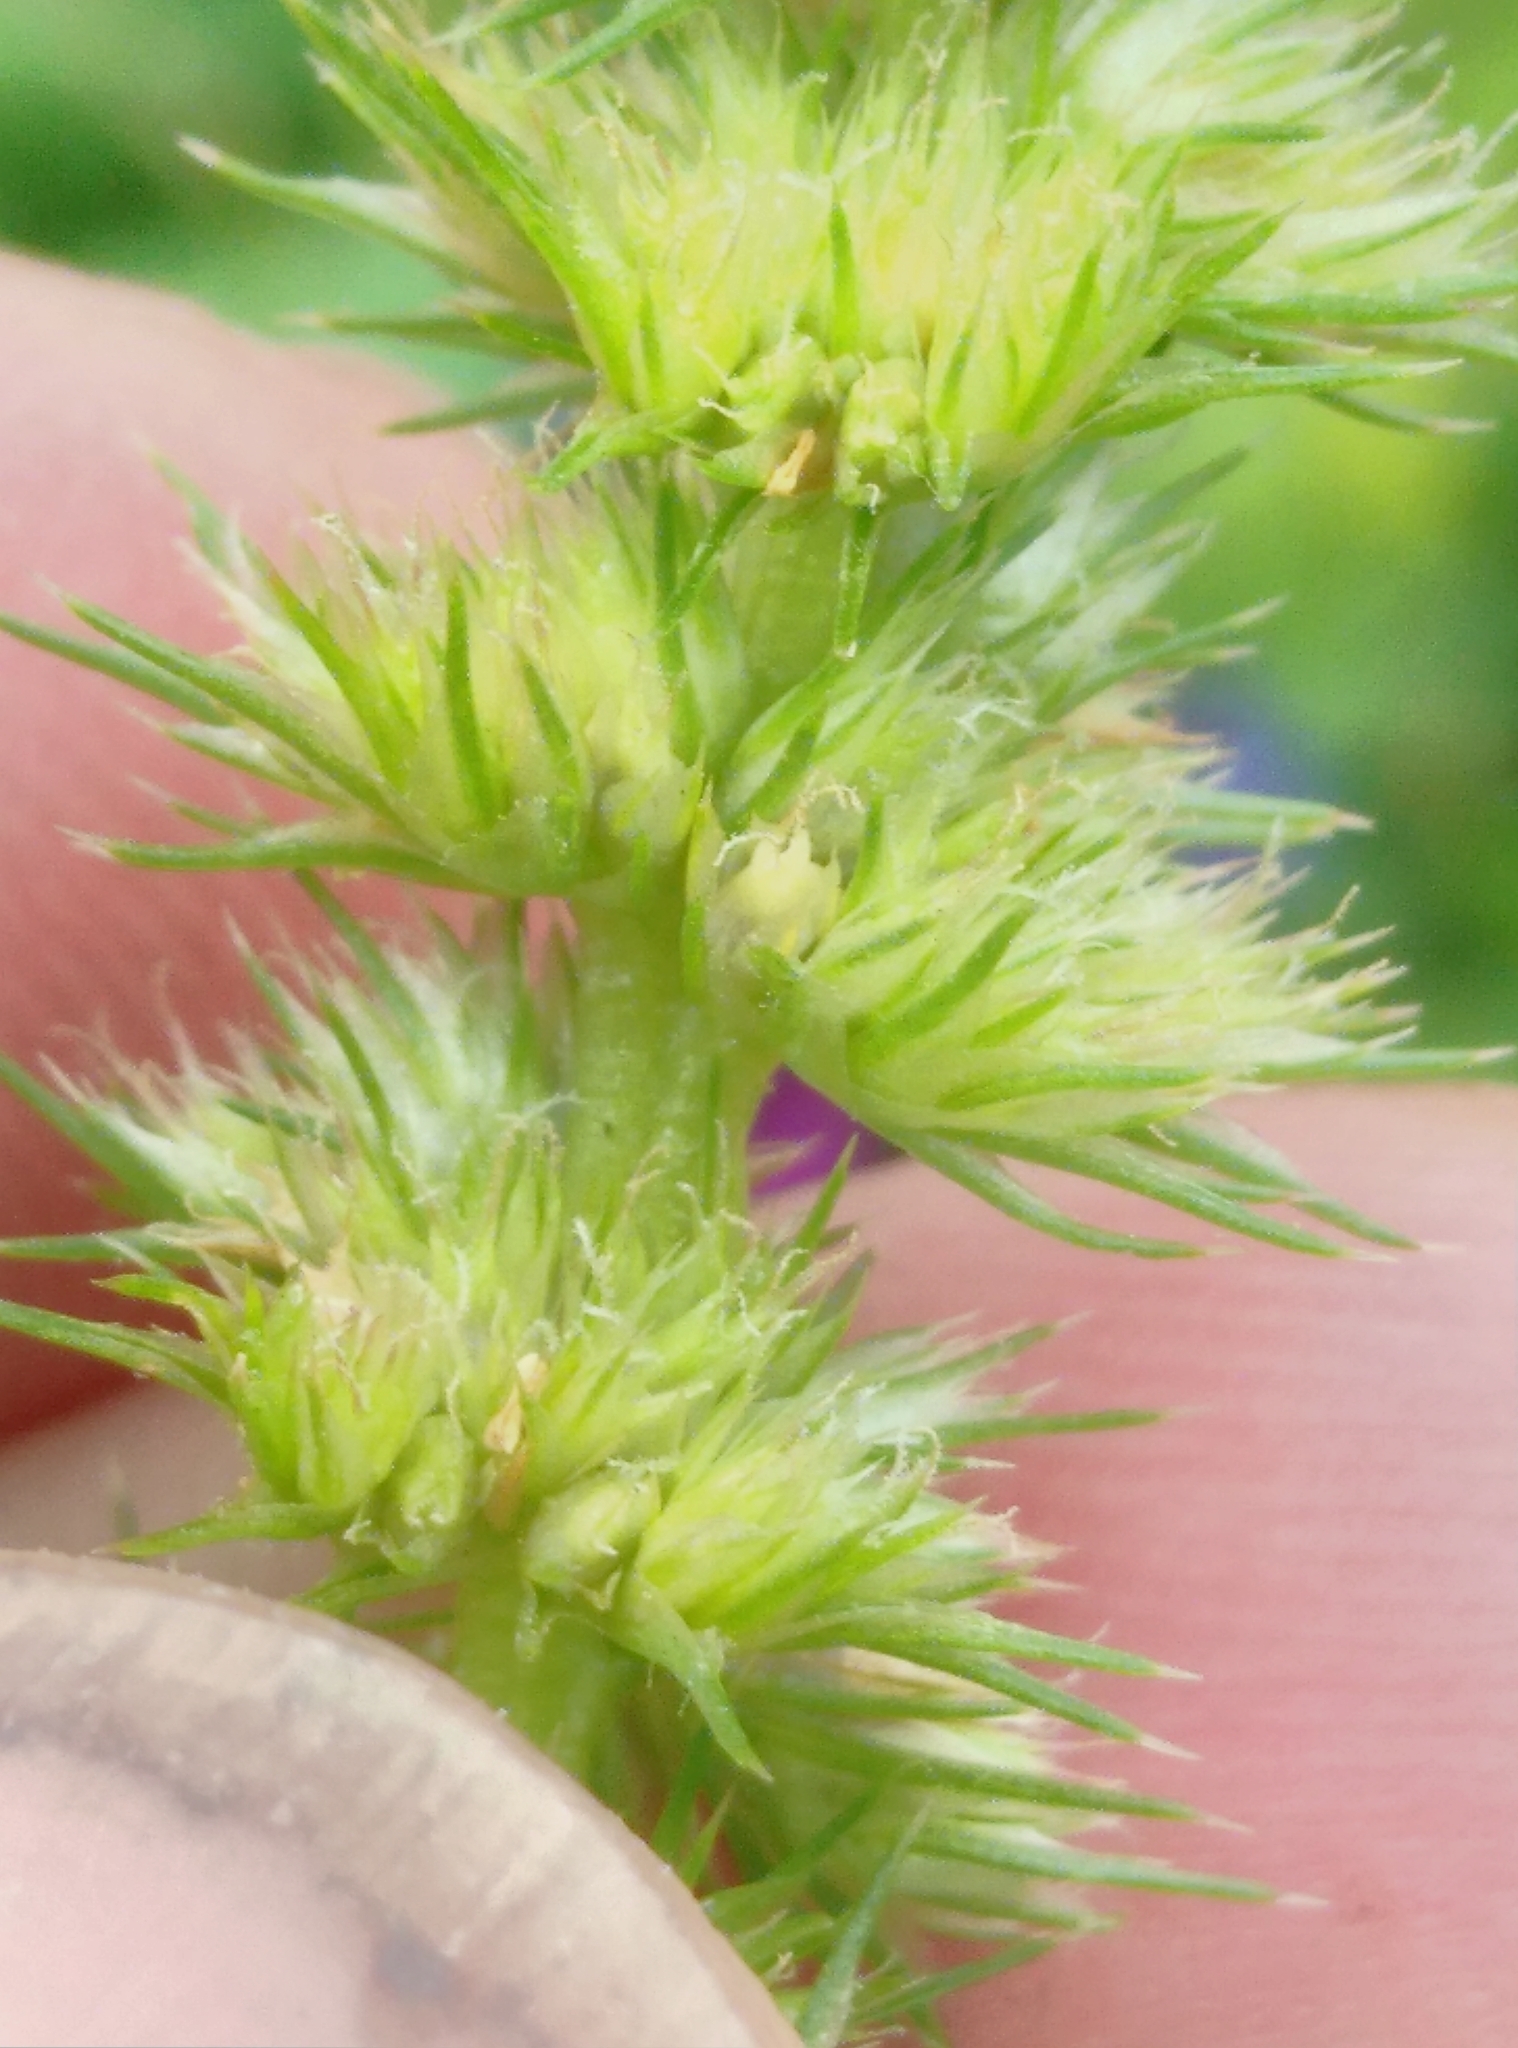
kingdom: Plantae
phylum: Tracheophyta
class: Magnoliopsida
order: Caryophyllales
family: Amaranthaceae
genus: Amaranthus
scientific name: Amaranthus powellii
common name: Powell's amaranth
